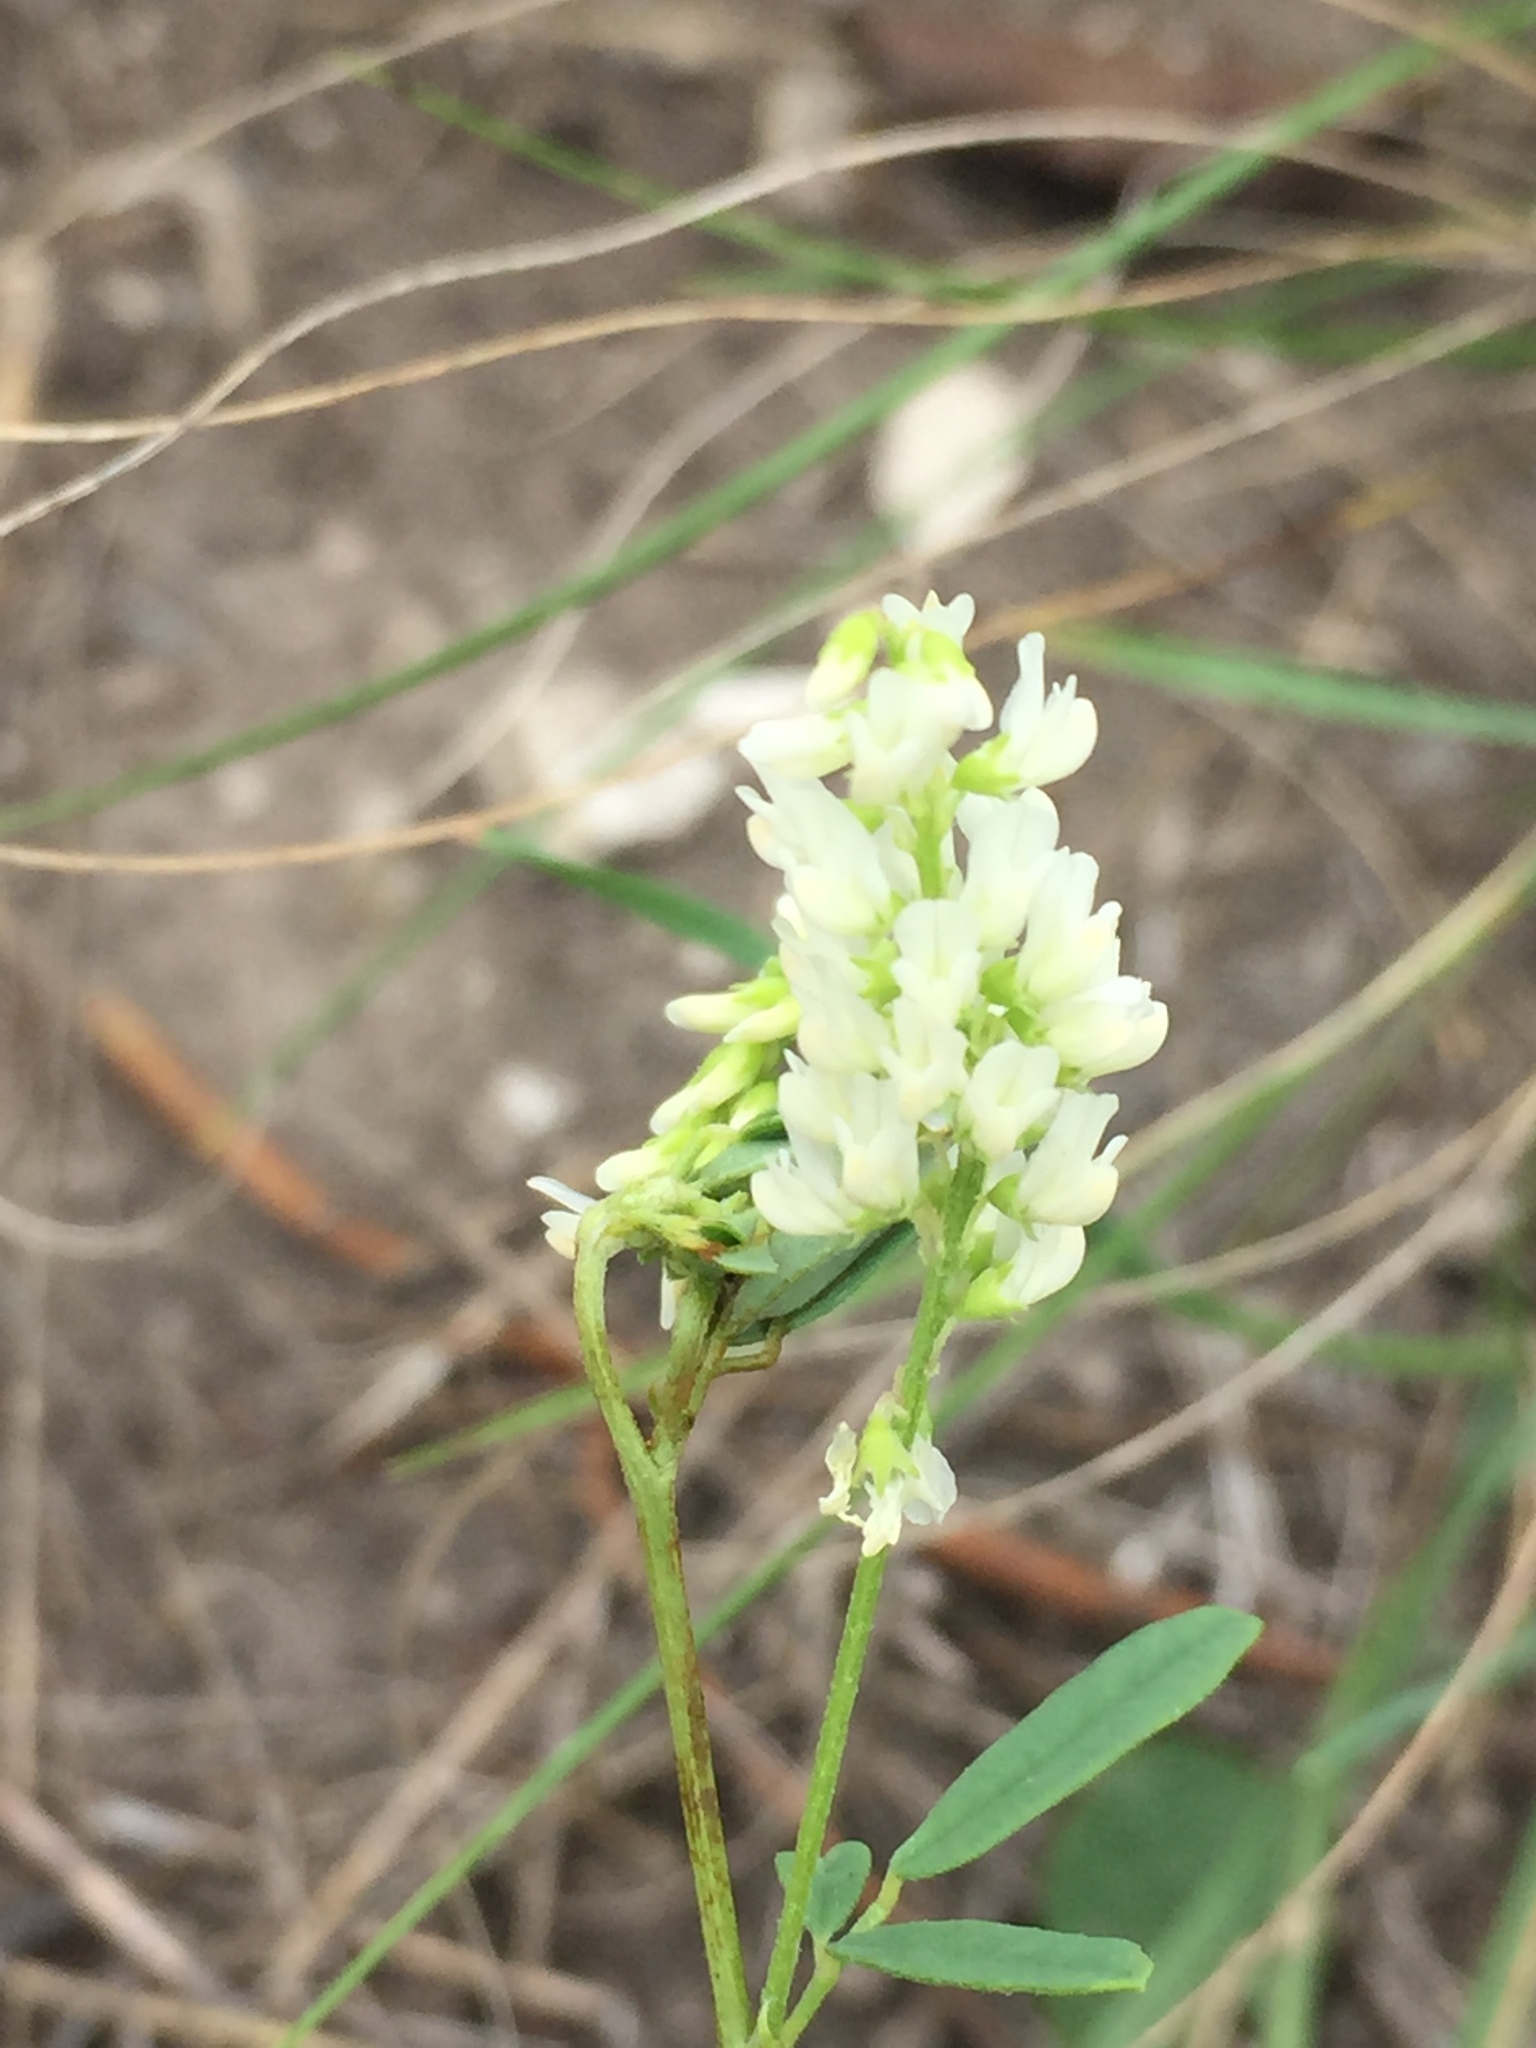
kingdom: Plantae
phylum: Tracheophyta
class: Magnoliopsida
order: Fabales
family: Fabaceae
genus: Melilotus
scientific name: Melilotus albus
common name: White melilot
